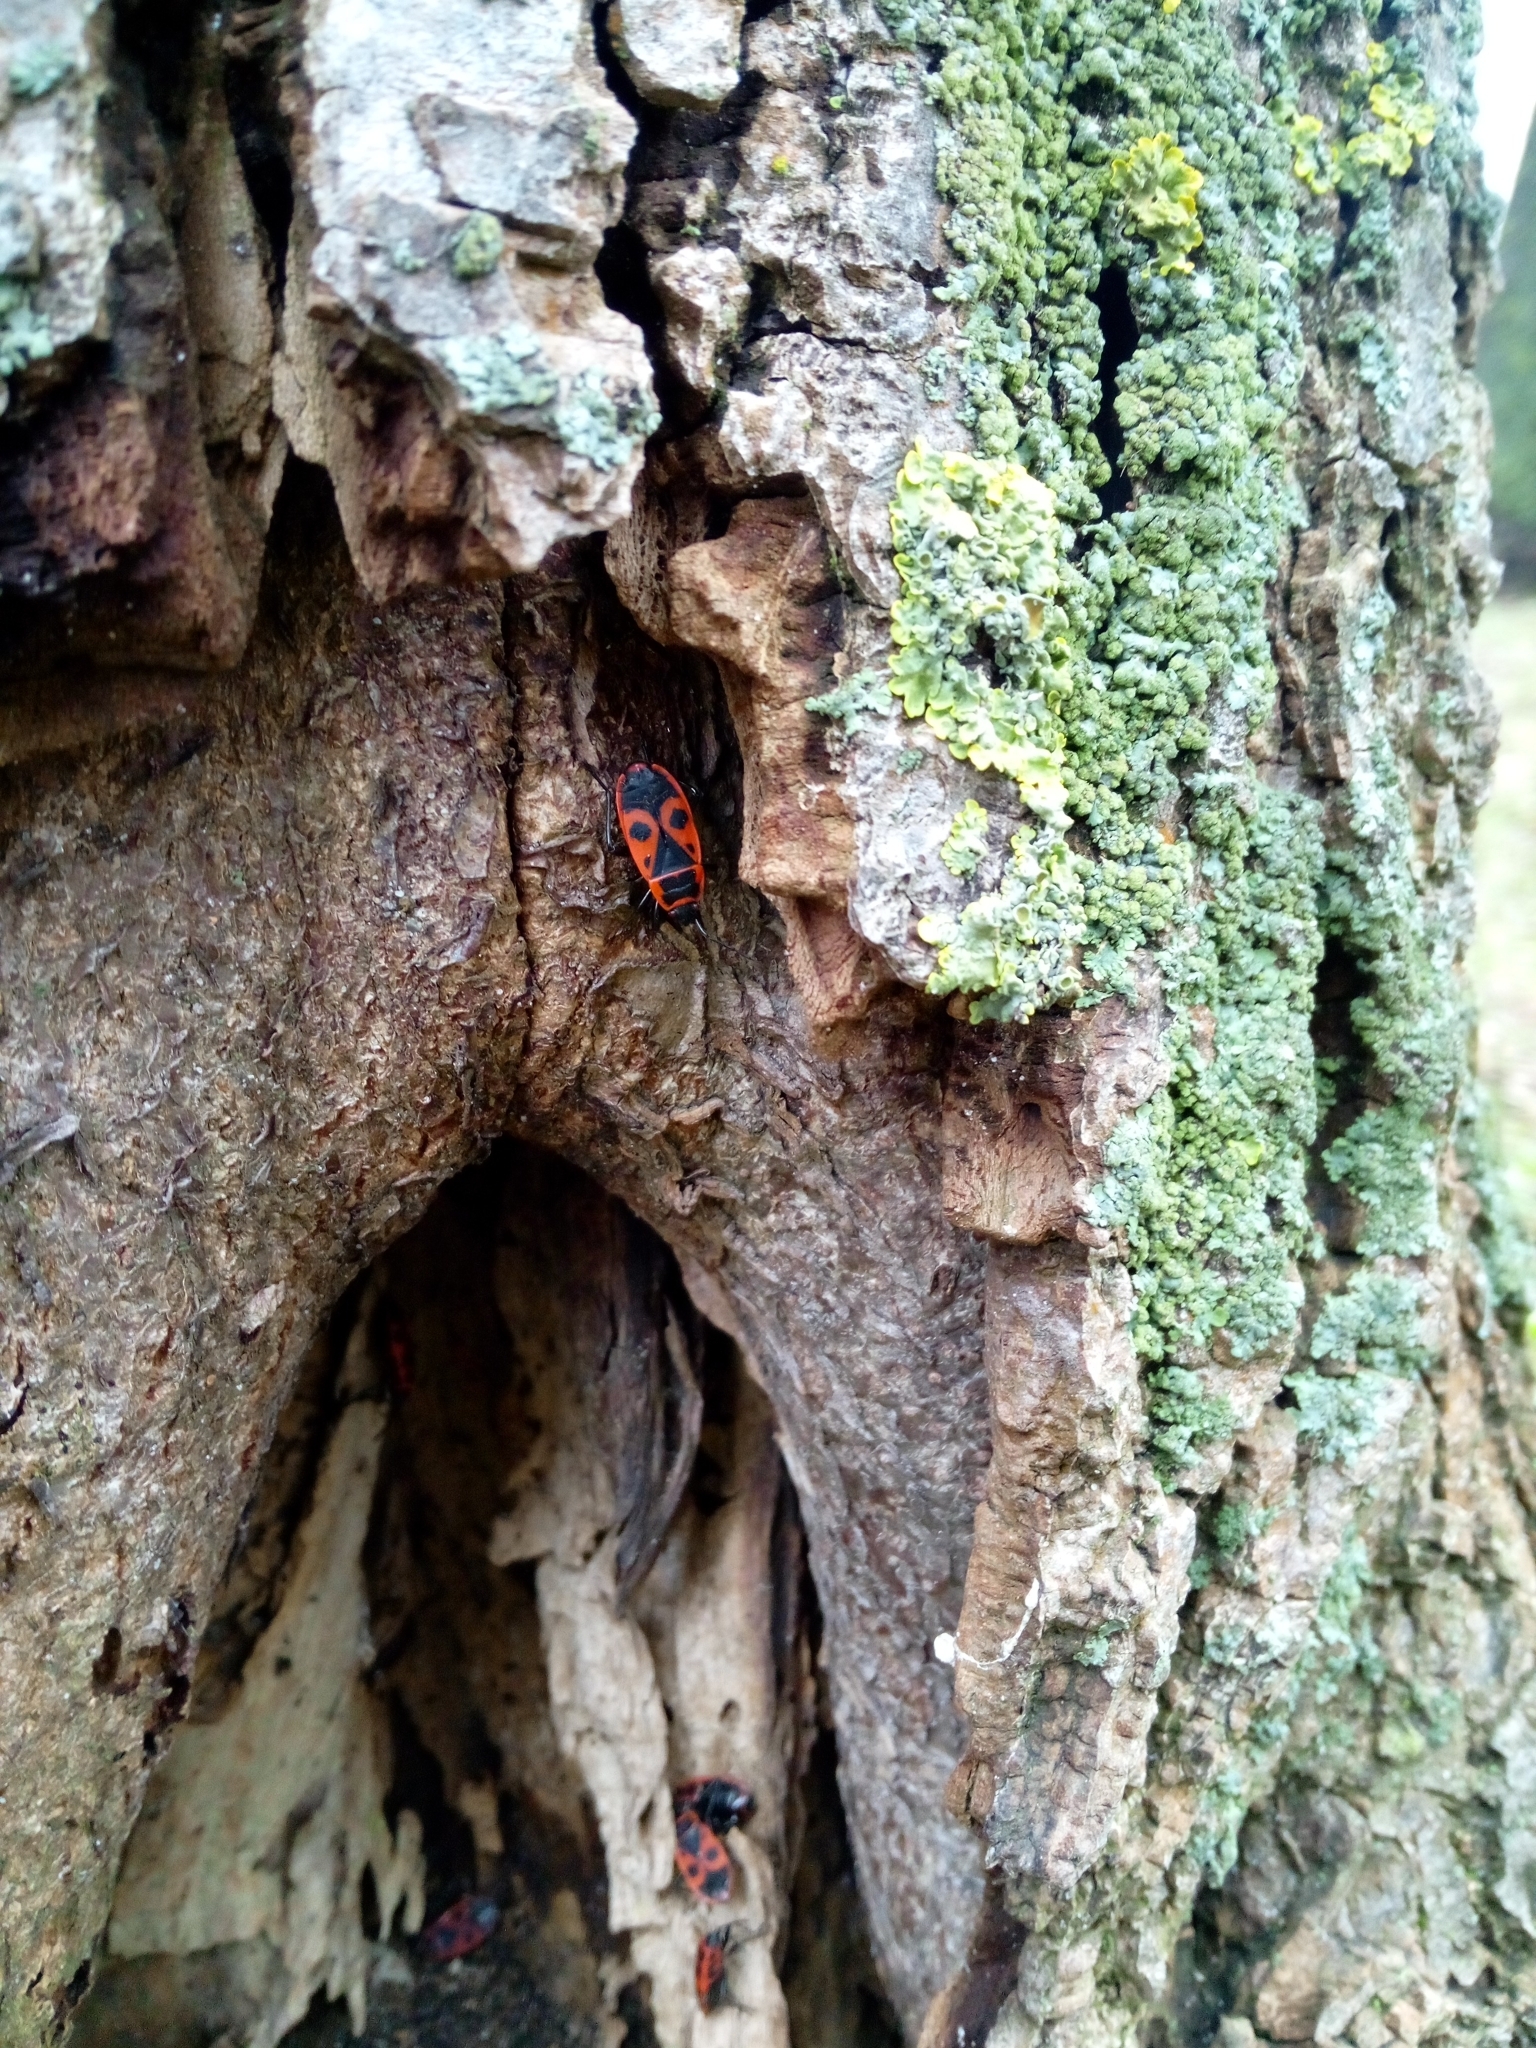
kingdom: Animalia
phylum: Arthropoda
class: Insecta
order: Hemiptera
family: Pyrrhocoridae
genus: Pyrrhocoris
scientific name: Pyrrhocoris apterus
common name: Firebug
